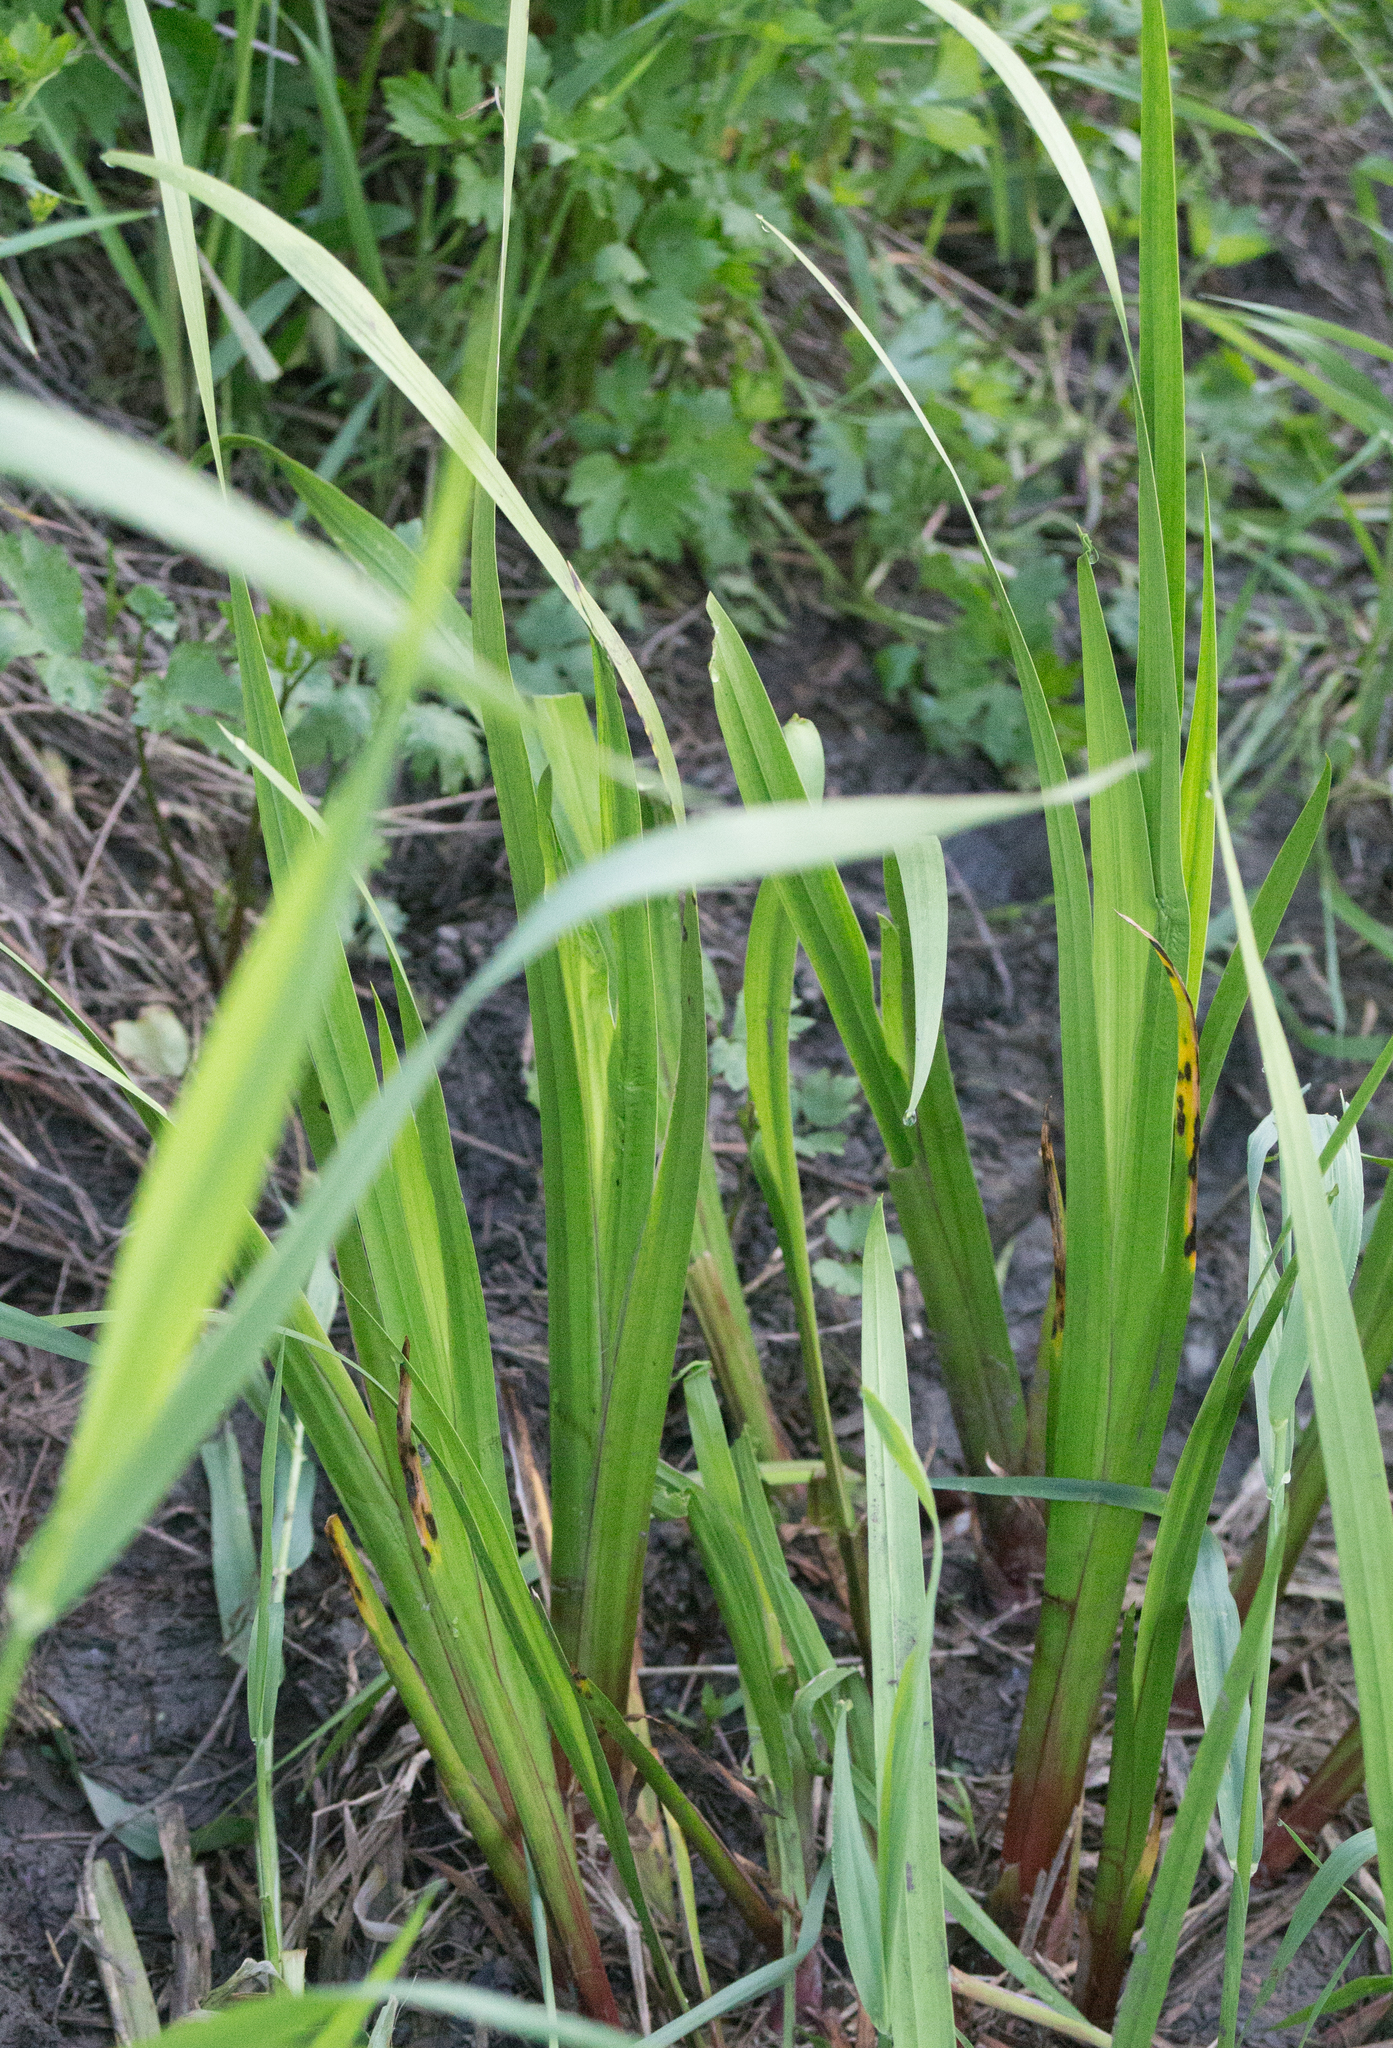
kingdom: Plantae
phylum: Tracheophyta
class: Liliopsida
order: Asparagales
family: Iridaceae
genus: Iris
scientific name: Iris pseudacorus
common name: Yellow flag
